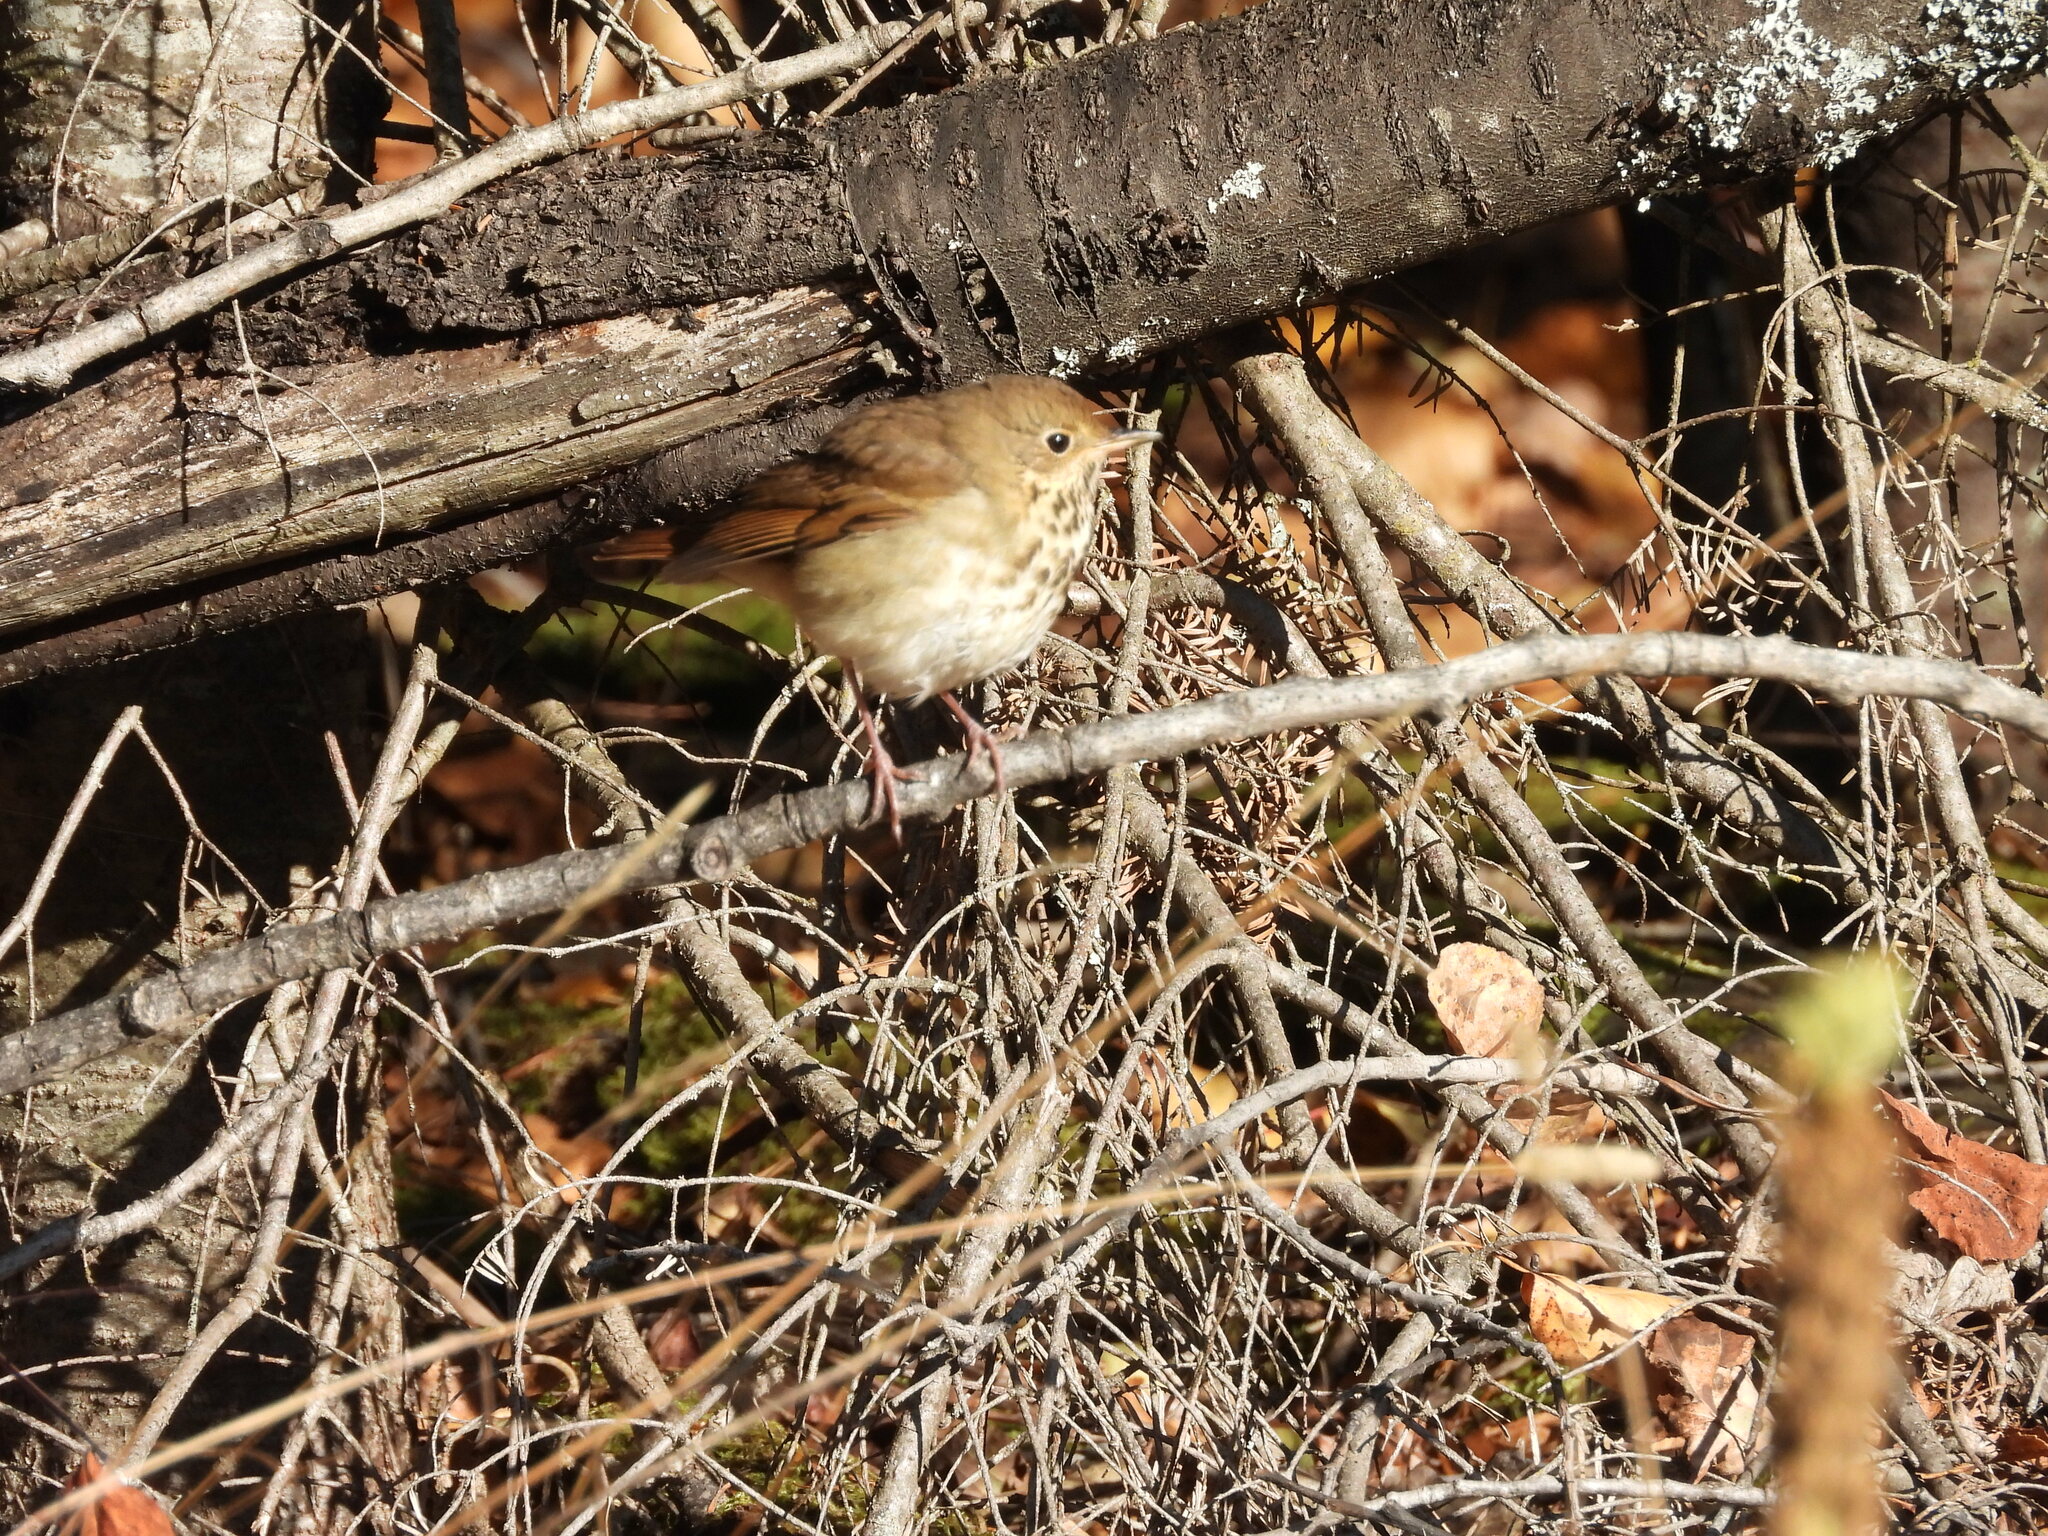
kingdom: Animalia
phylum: Chordata
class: Aves
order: Passeriformes
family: Turdidae
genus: Catharus
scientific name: Catharus guttatus
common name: Hermit thrush
